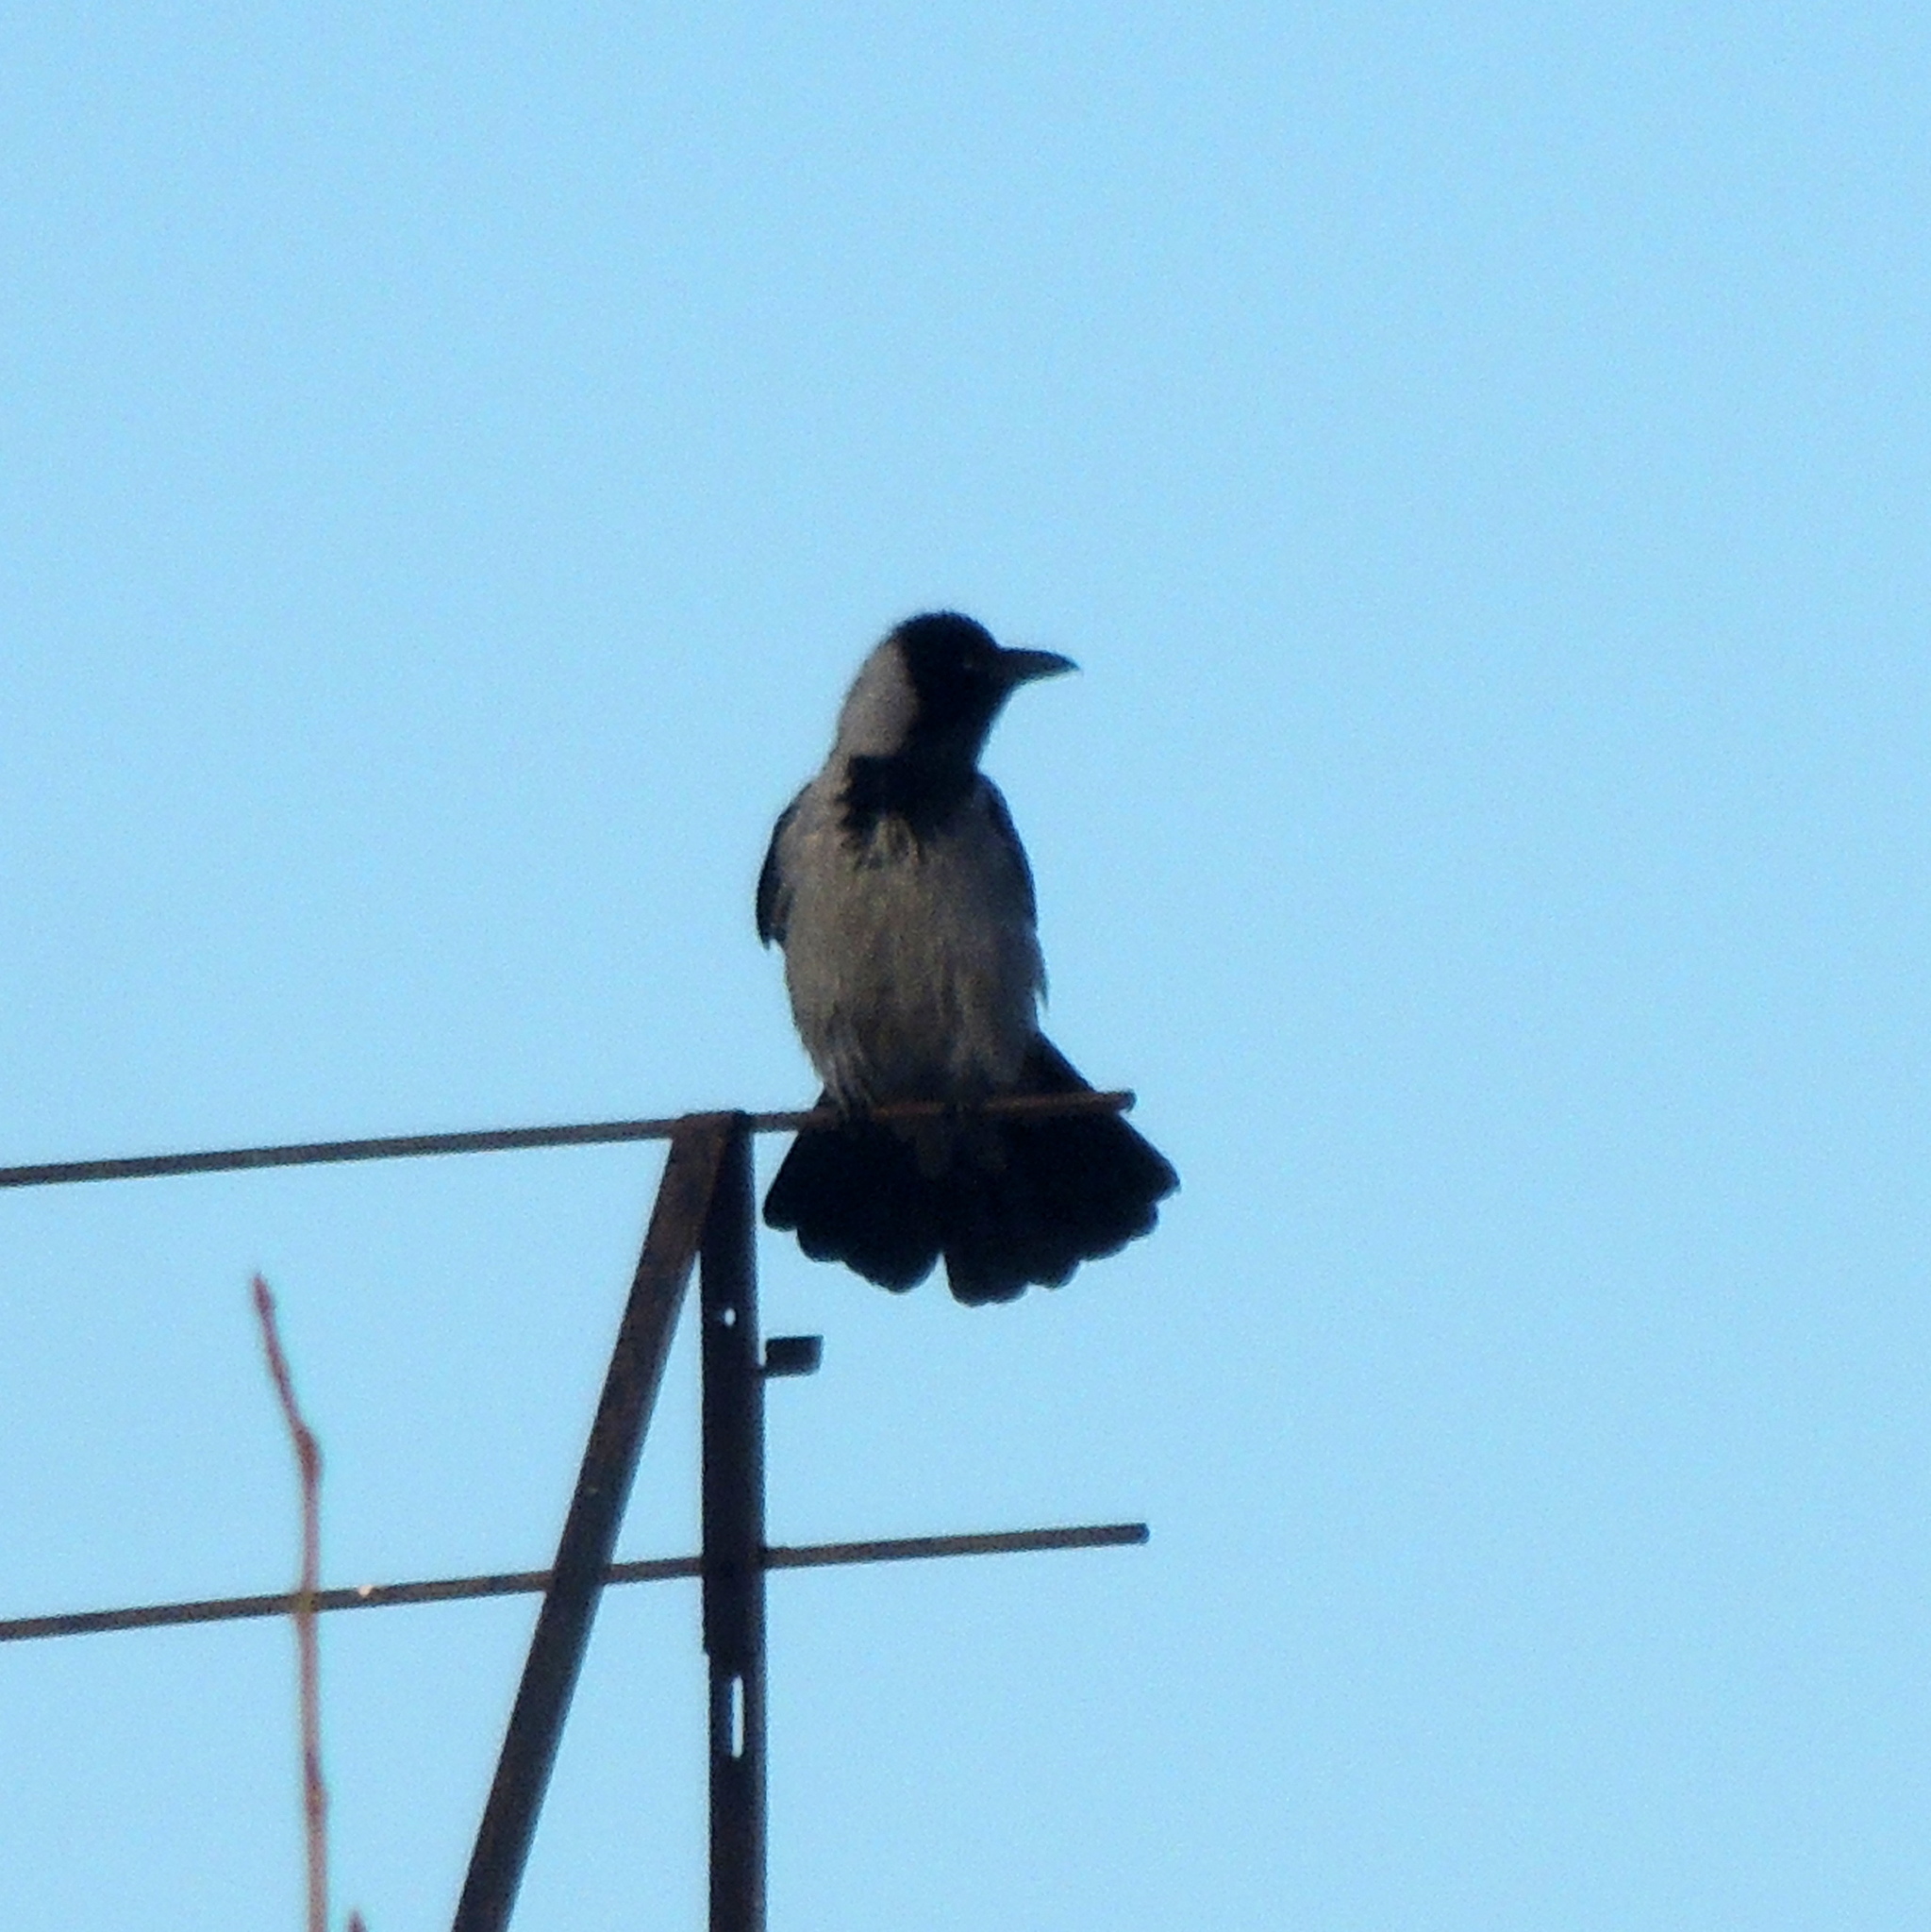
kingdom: Animalia
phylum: Chordata
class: Aves
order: Passeriformes
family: Corvidae
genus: Corvus
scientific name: Corvus cornix
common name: Hooded crow
